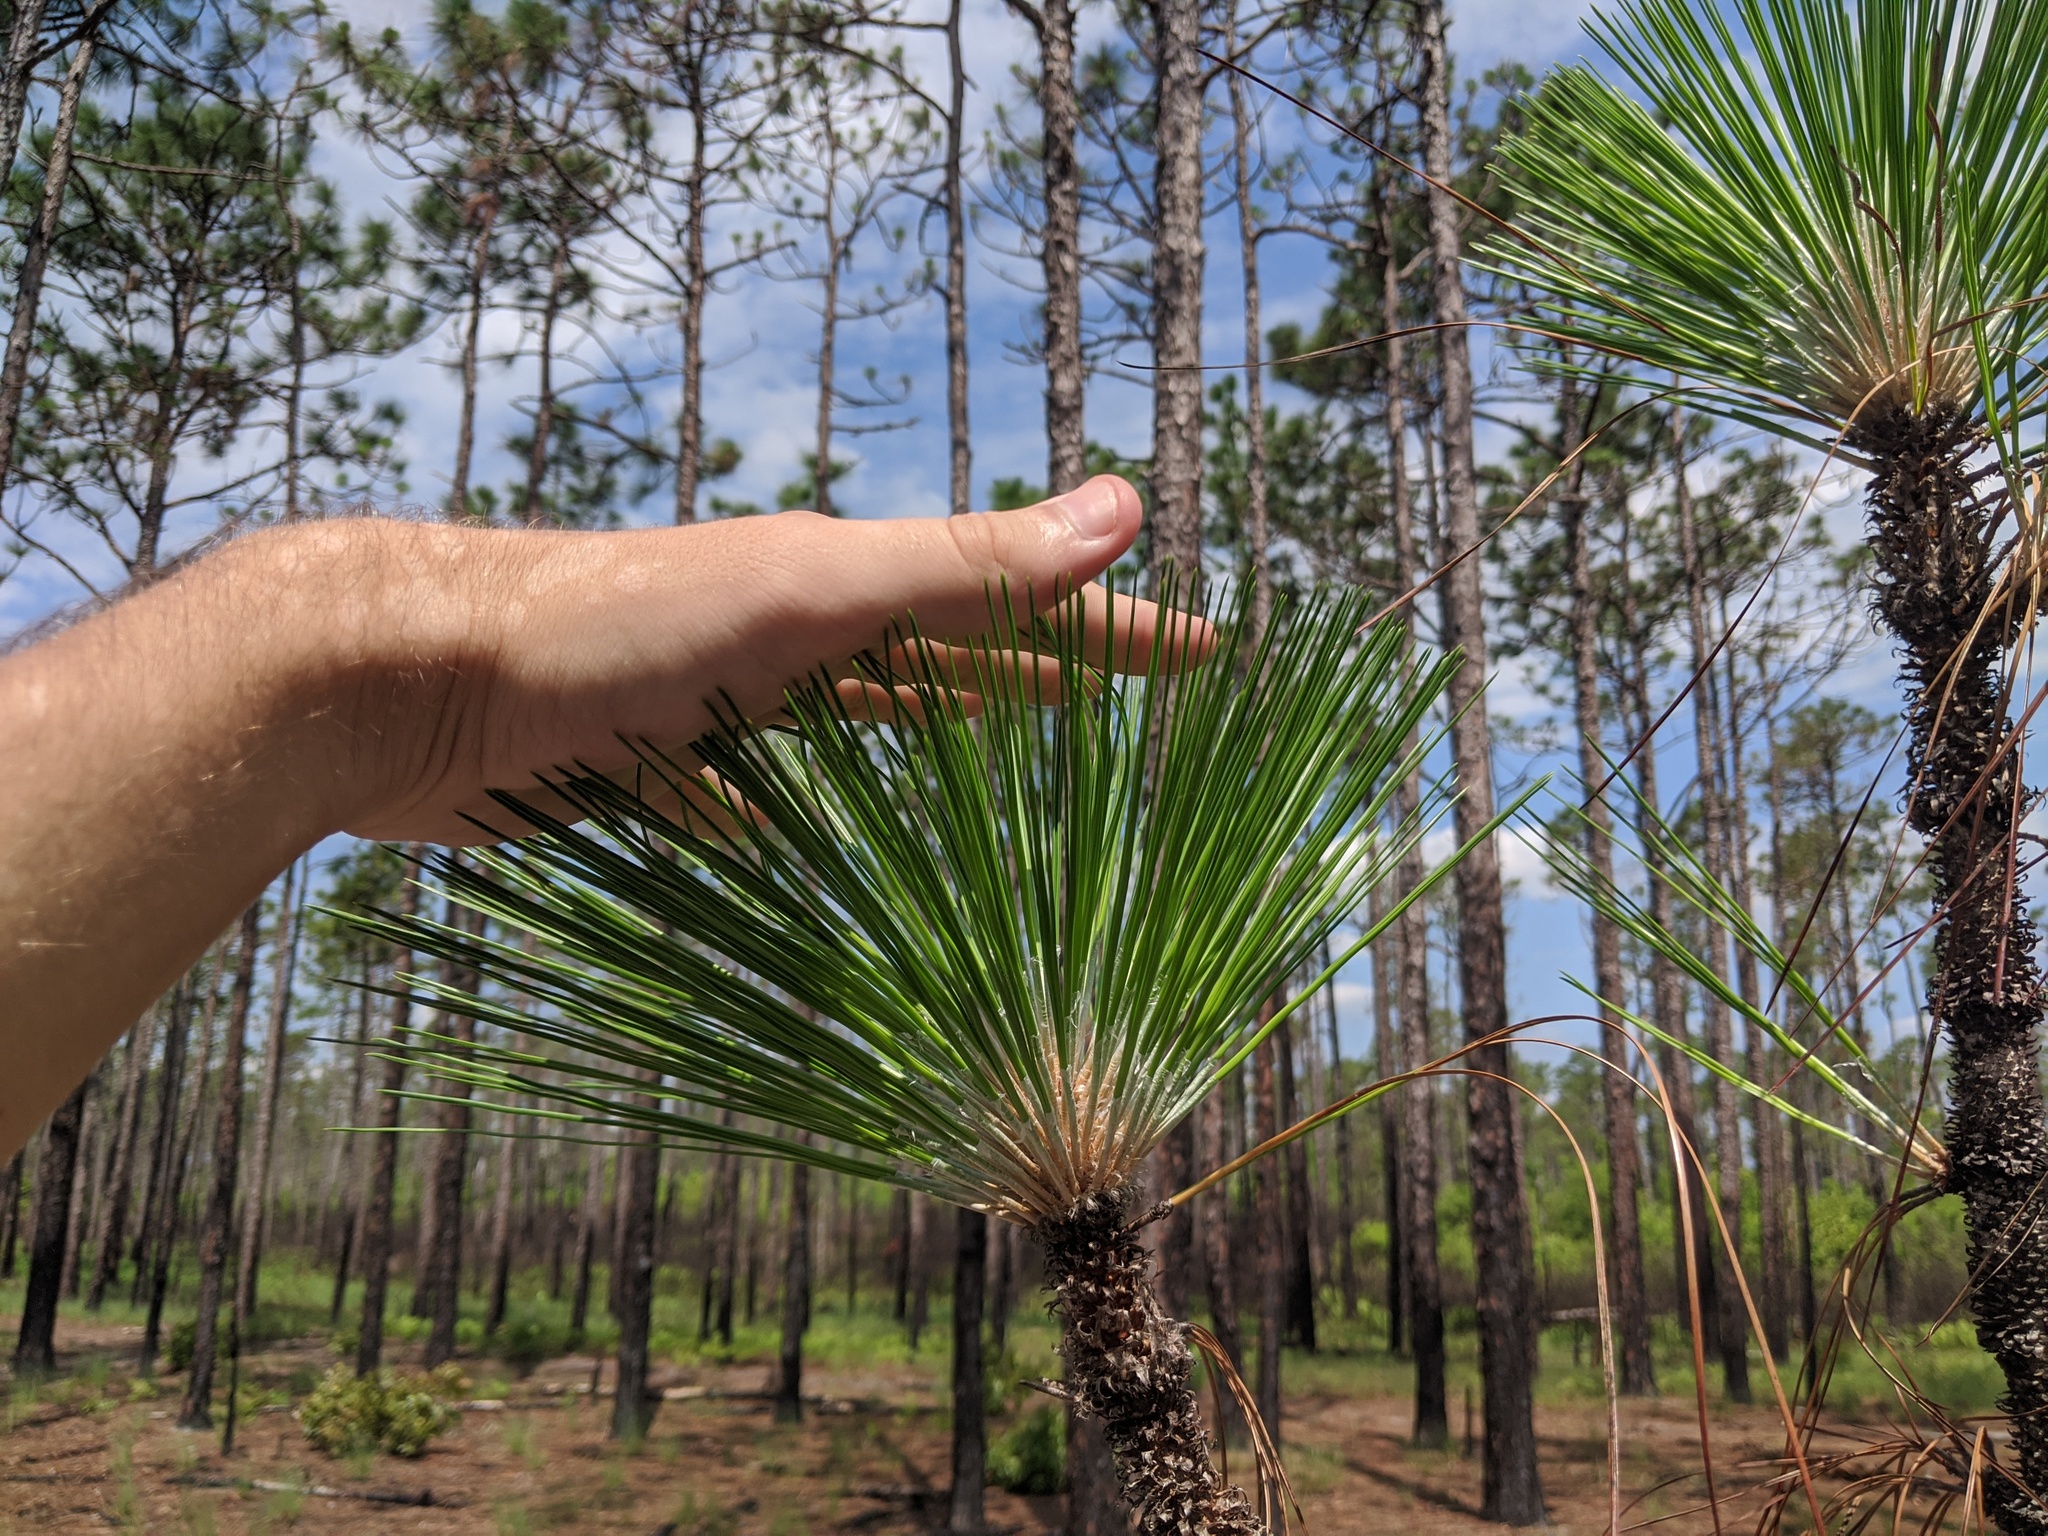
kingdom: Plantae
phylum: Tracheophyta
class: Pinopsida
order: Pinales
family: Pinaceae
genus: Pinus
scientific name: Pinus palustris
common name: Longleaf pine
